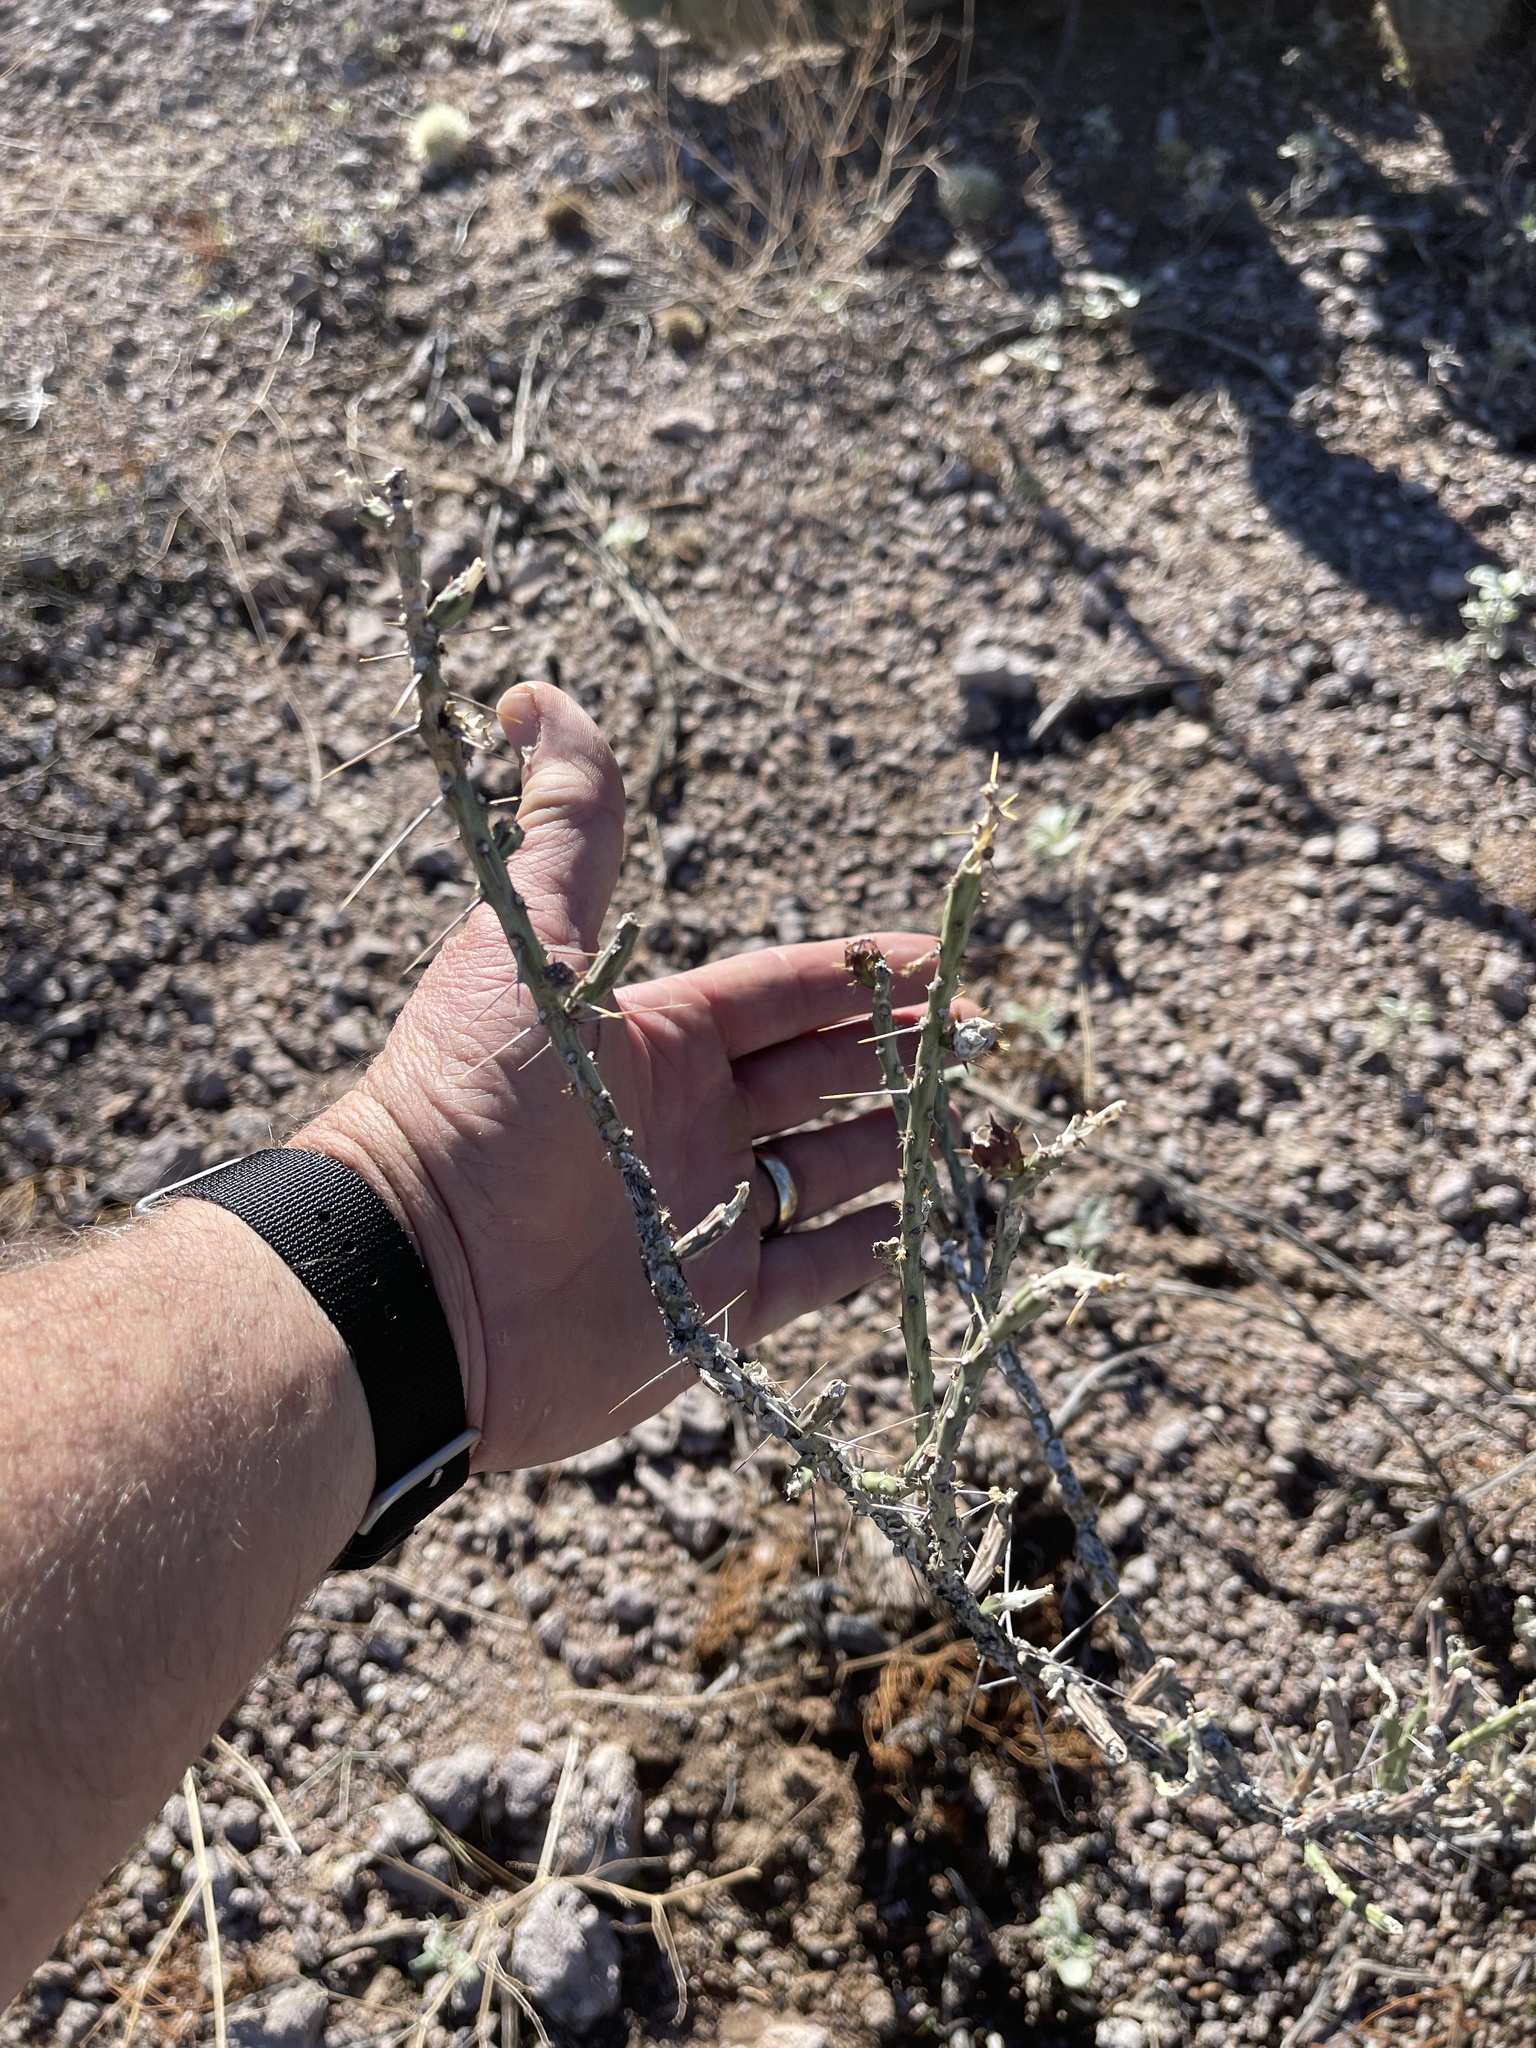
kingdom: Plantae
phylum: Tracheophyta
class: Magnoliopsida
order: Caryophyllales
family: Cactaceae
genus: Cylindropuntia
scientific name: Cylindropuntia leptocaulis
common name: Christmas cactus
